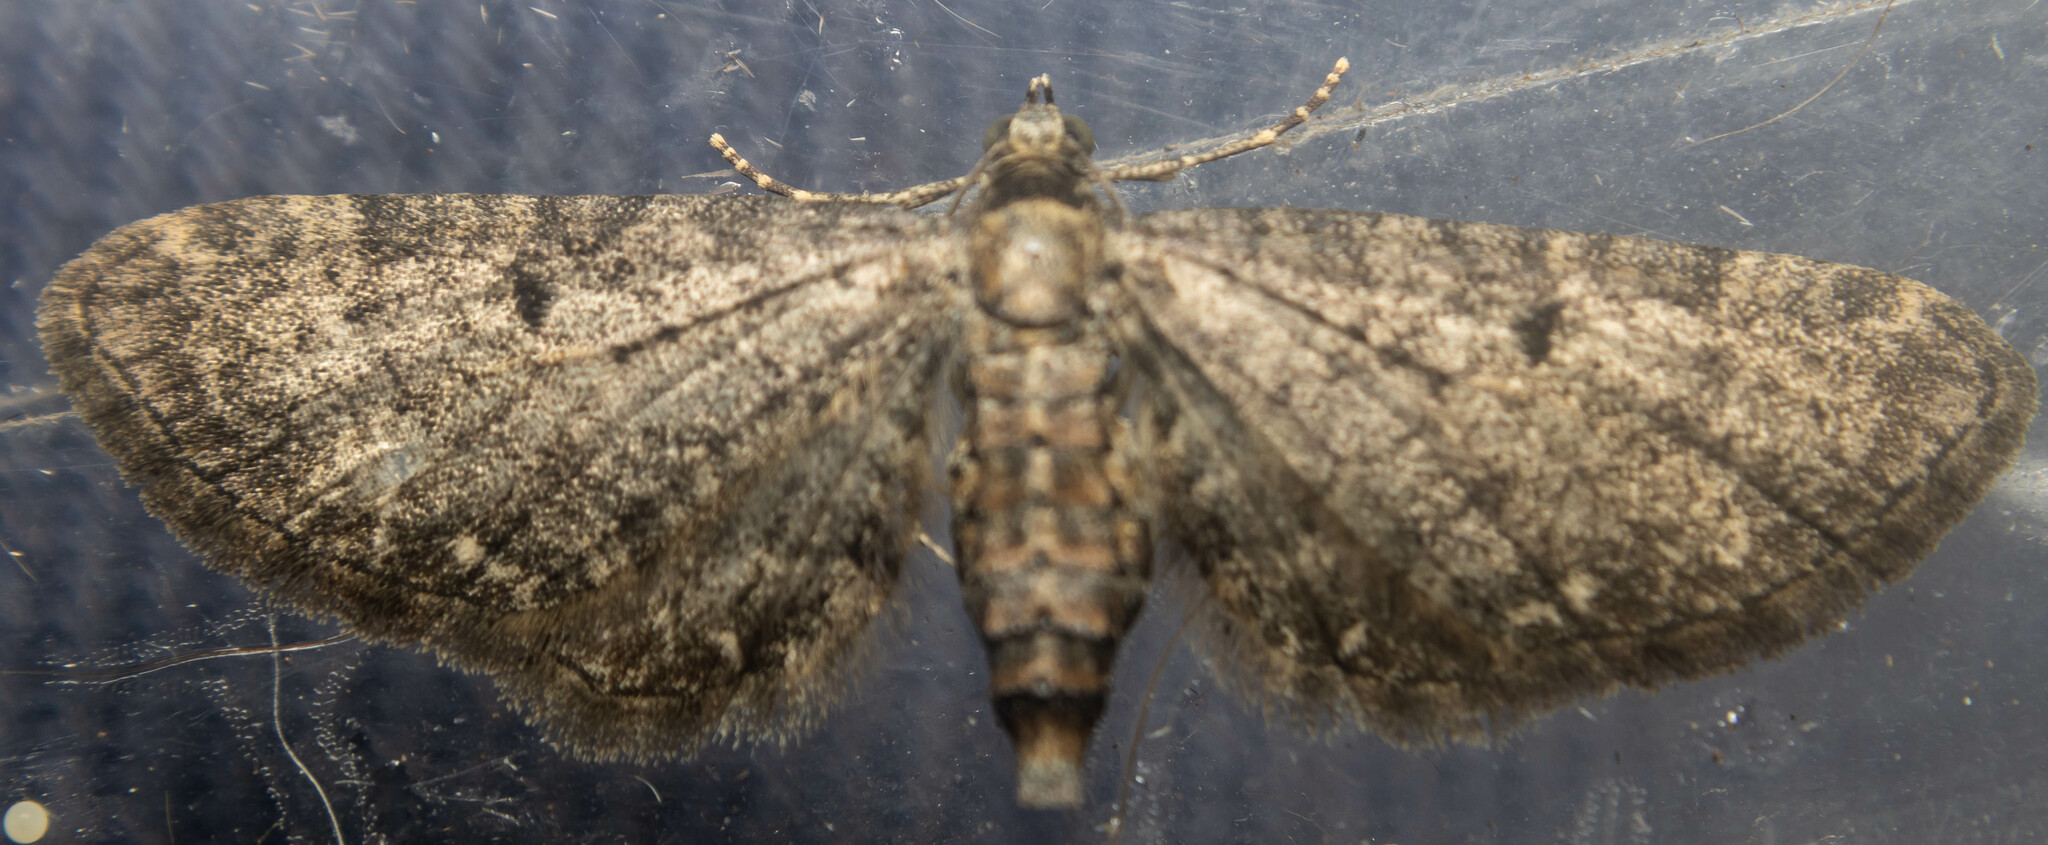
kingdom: Animalia
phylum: Arthropoda
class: Insecta
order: Lepidoptera
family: Geometridae
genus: Eupithecia
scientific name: Eupithecia subfuscata
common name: Grey pug
